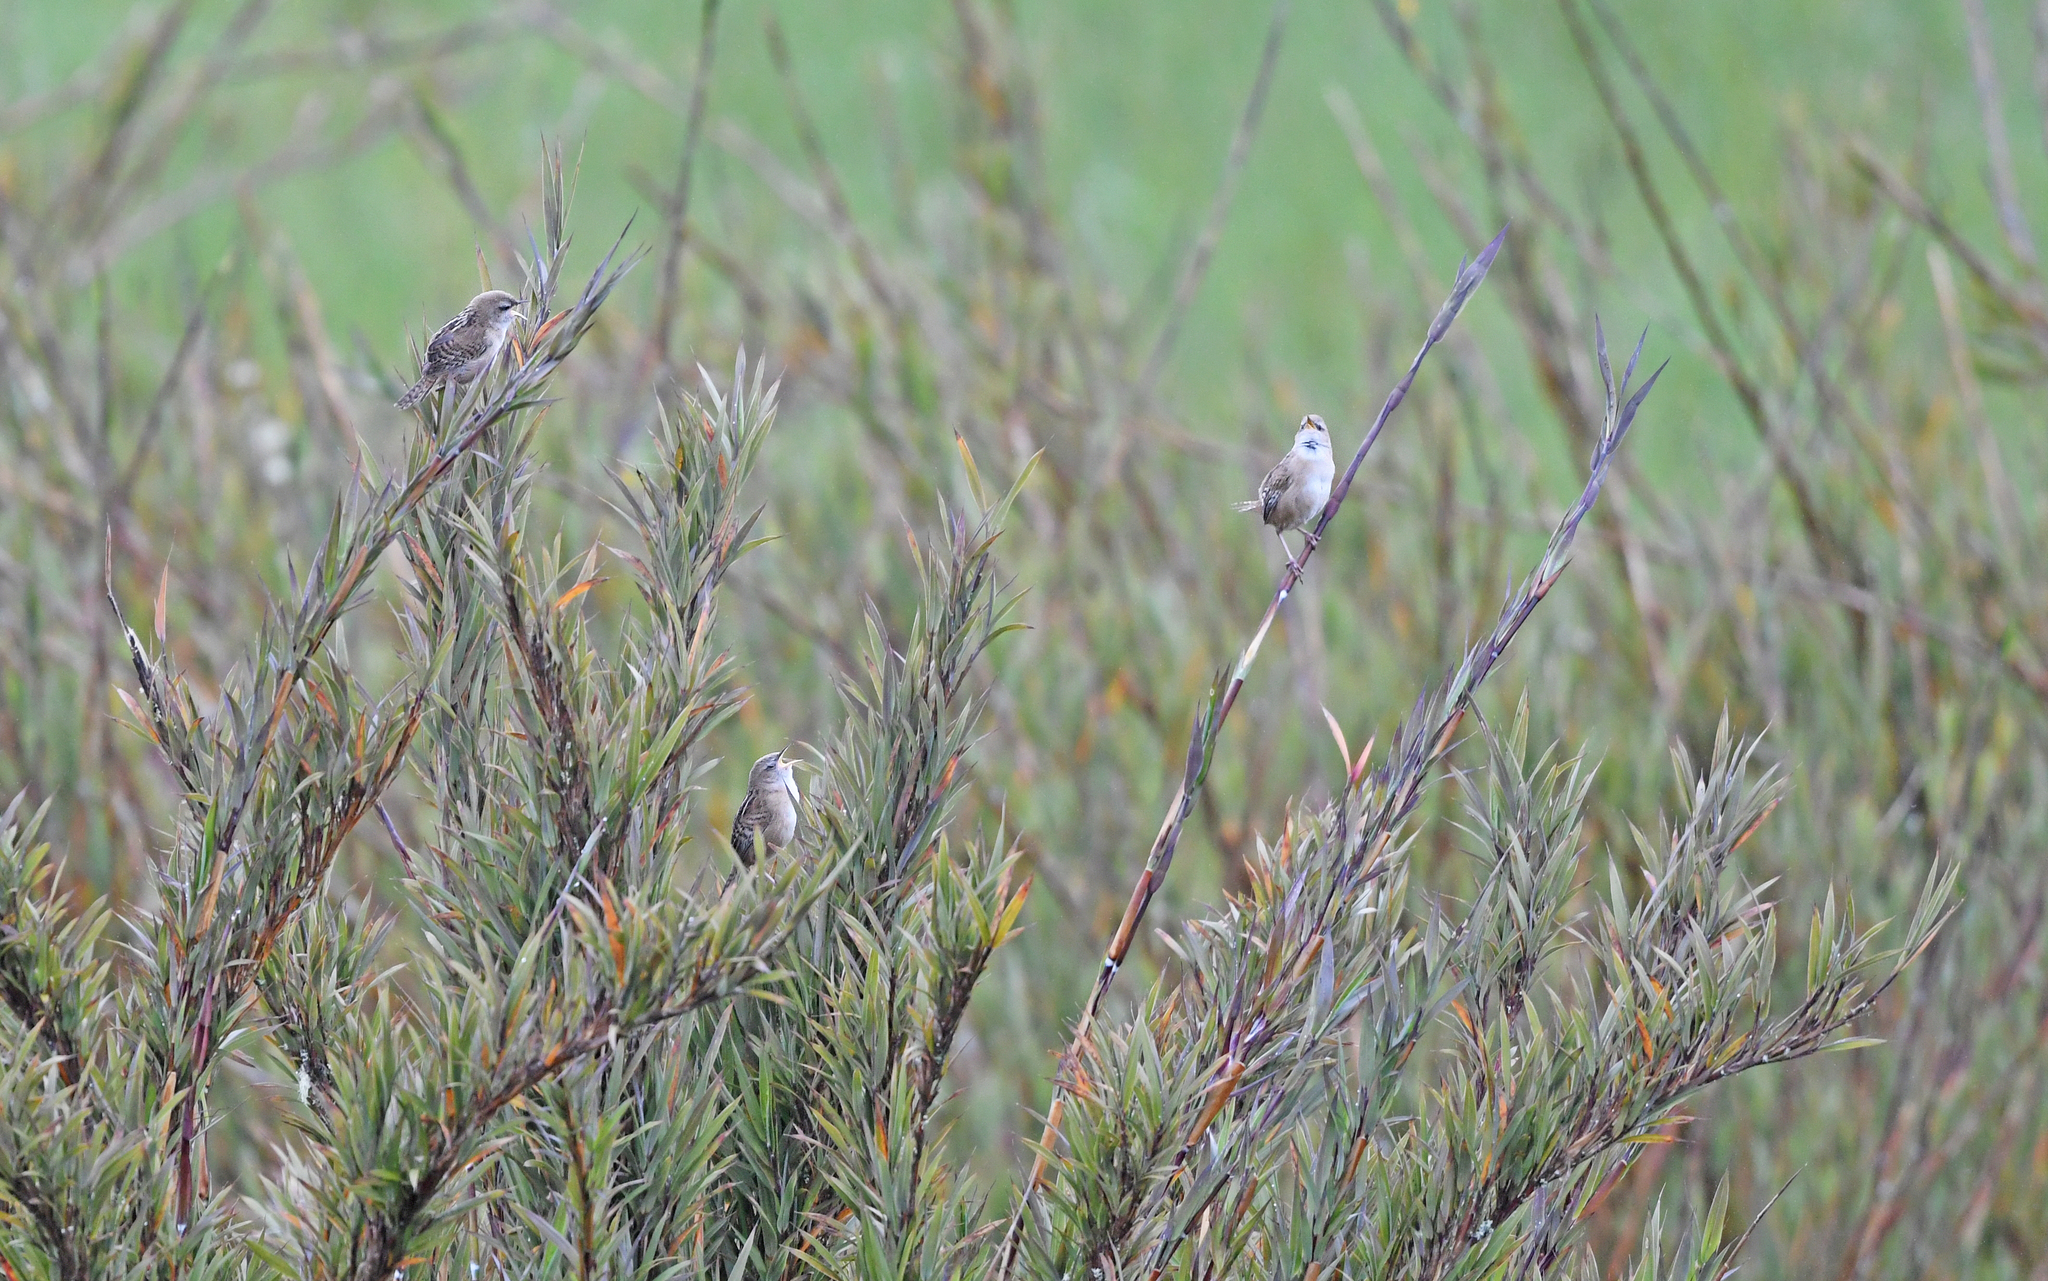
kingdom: Animalia
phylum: Chordata
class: Aves
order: Passeriformes
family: Troglodytidae
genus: Cistothorus
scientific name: Cistothorus apolinari
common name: Apolinar's wren
